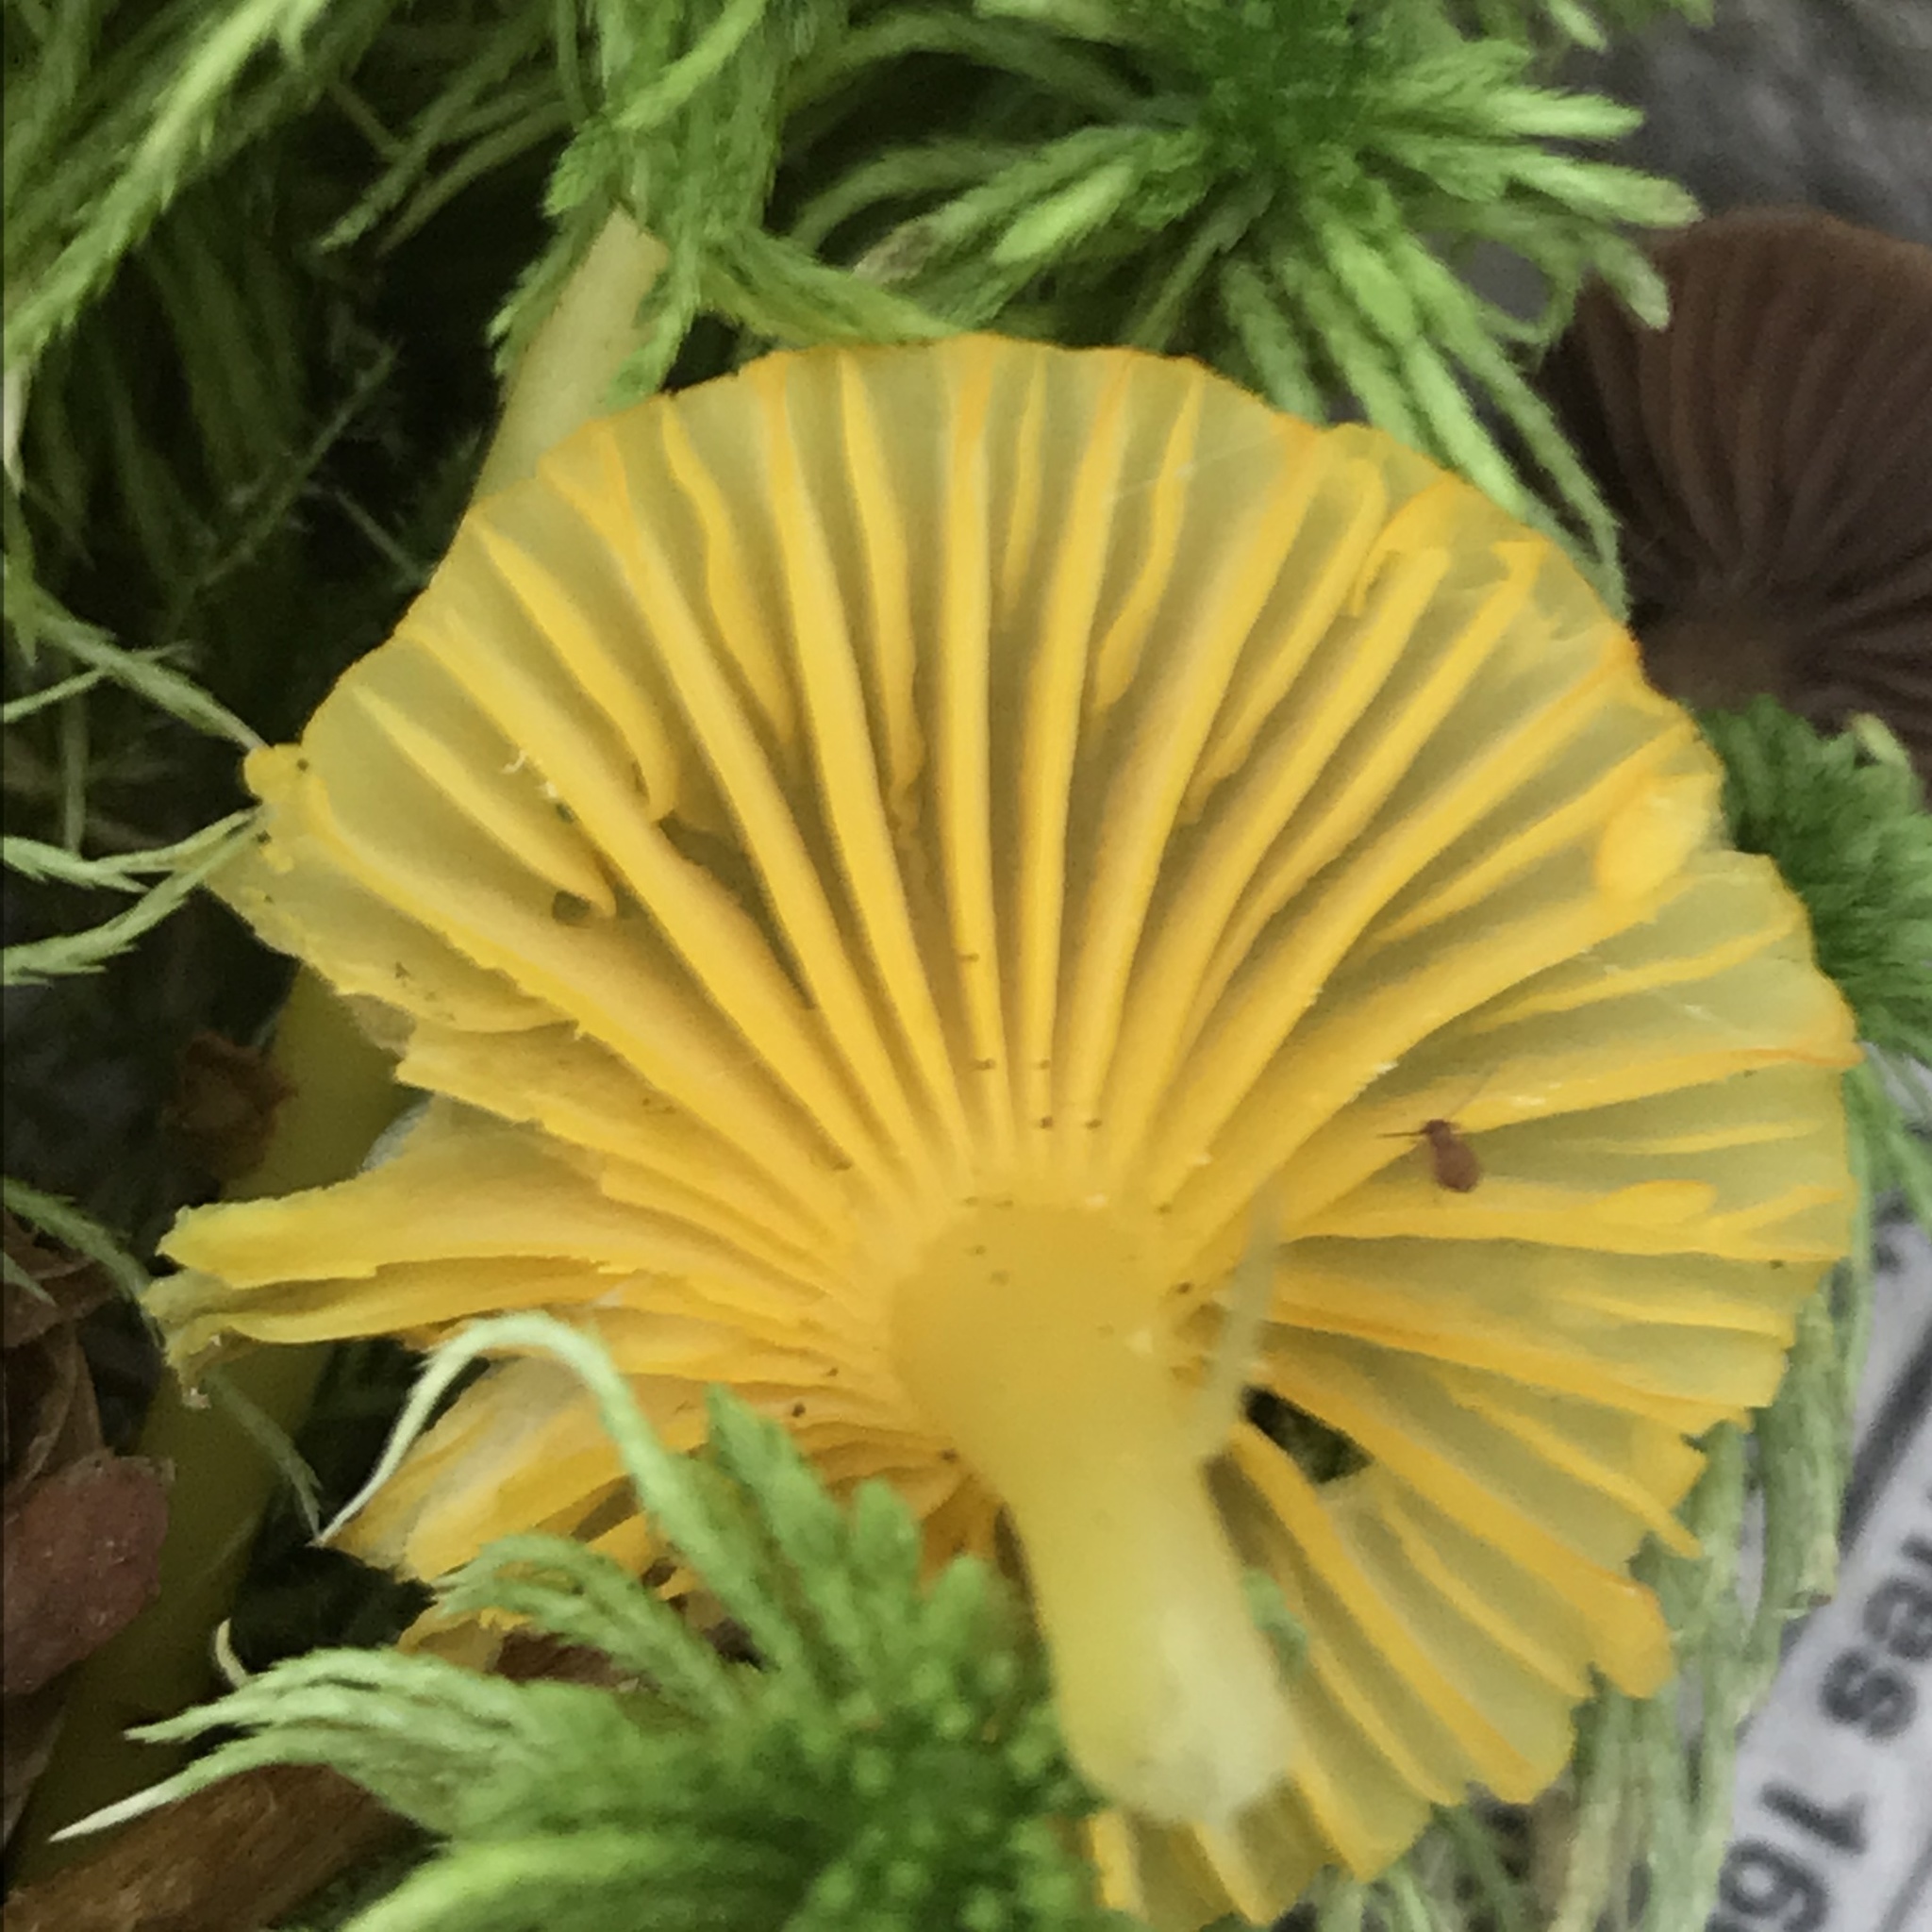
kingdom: Fungi
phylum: Basidiomycota
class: Agaricomycetes
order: Agaricales
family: Hygrophoraceae
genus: Gloioxanthomyces
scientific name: Gloioxanthomyces nitidus
